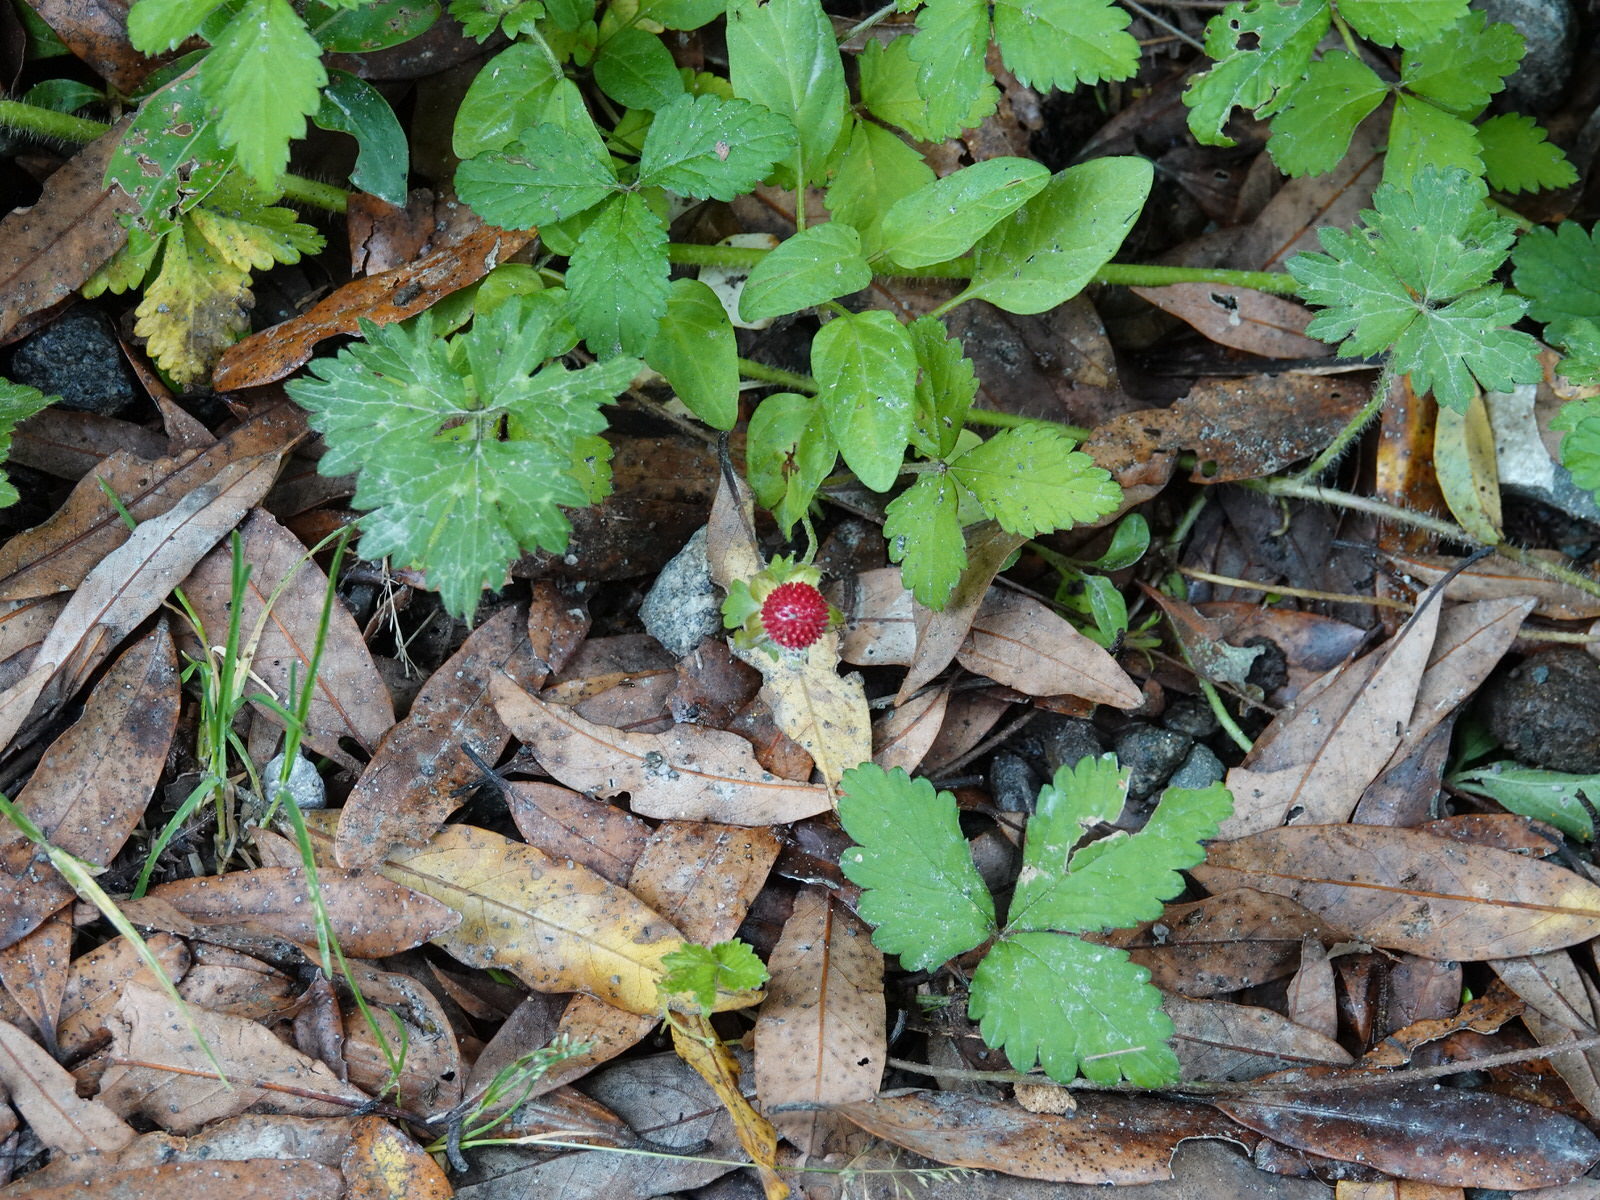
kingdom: Plantae
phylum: Tracheophyta
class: Magnoliopsida
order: Rosales
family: Rosaceae
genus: Potentilla
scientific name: Potentilla indica
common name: Yellow-flowered strawberry
